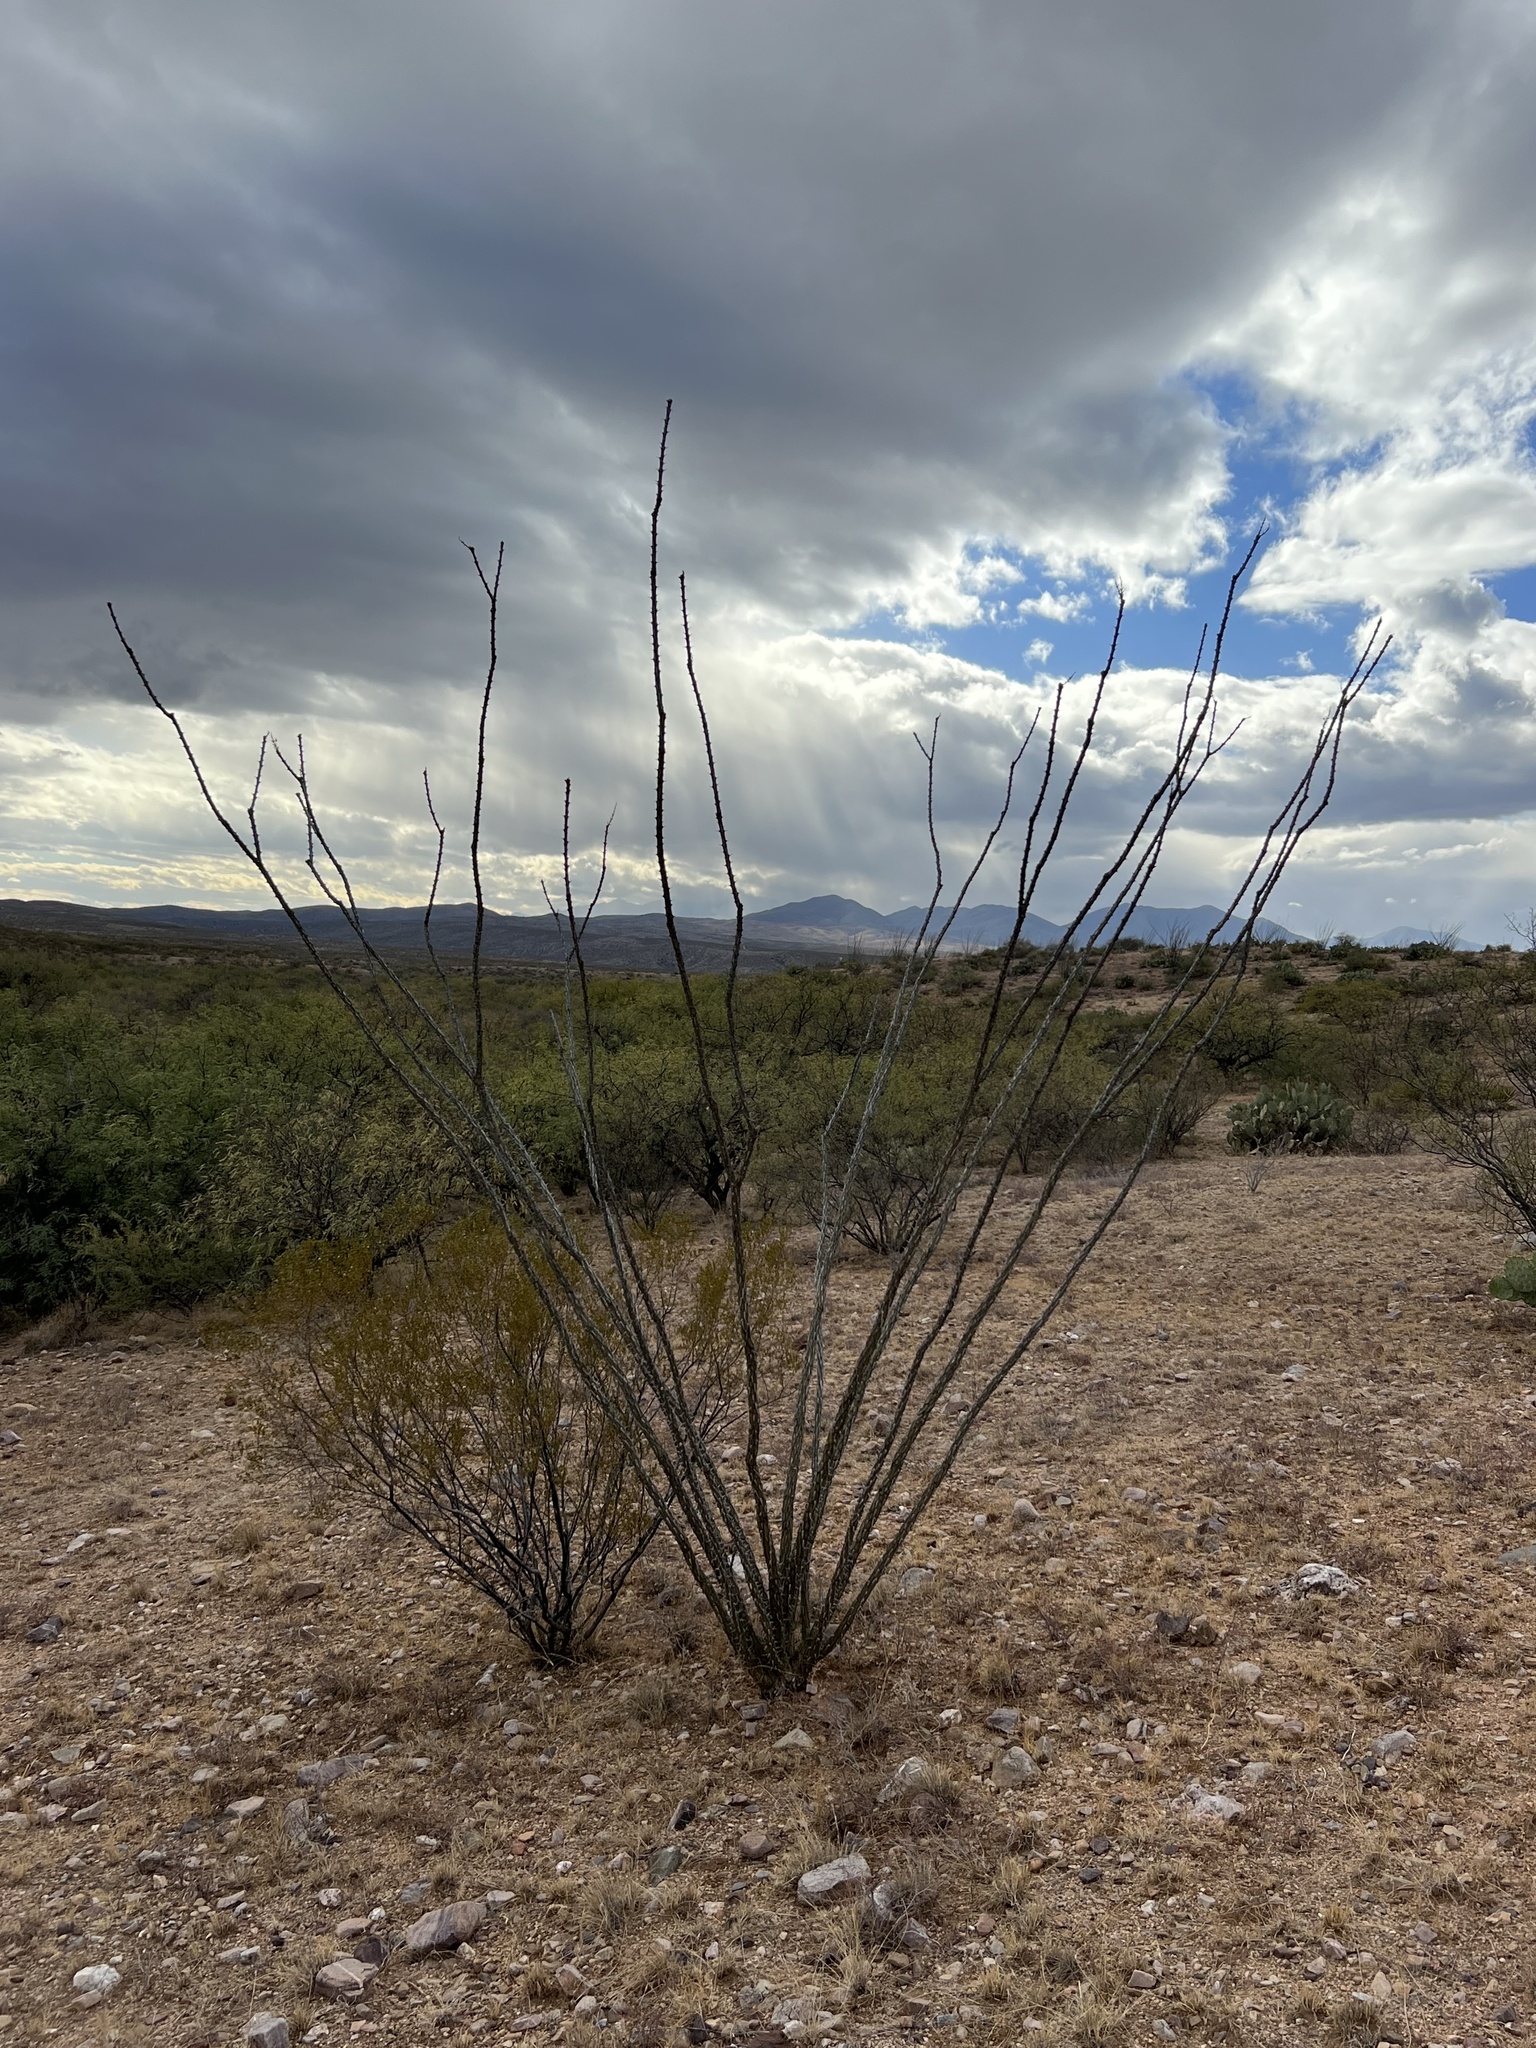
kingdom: Plantae
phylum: Tracheophyta
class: Magnoliopsida
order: Ericales
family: Fouquieriaceae
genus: Fouquieria
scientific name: Fouquieria splendens
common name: Vine-cactus
